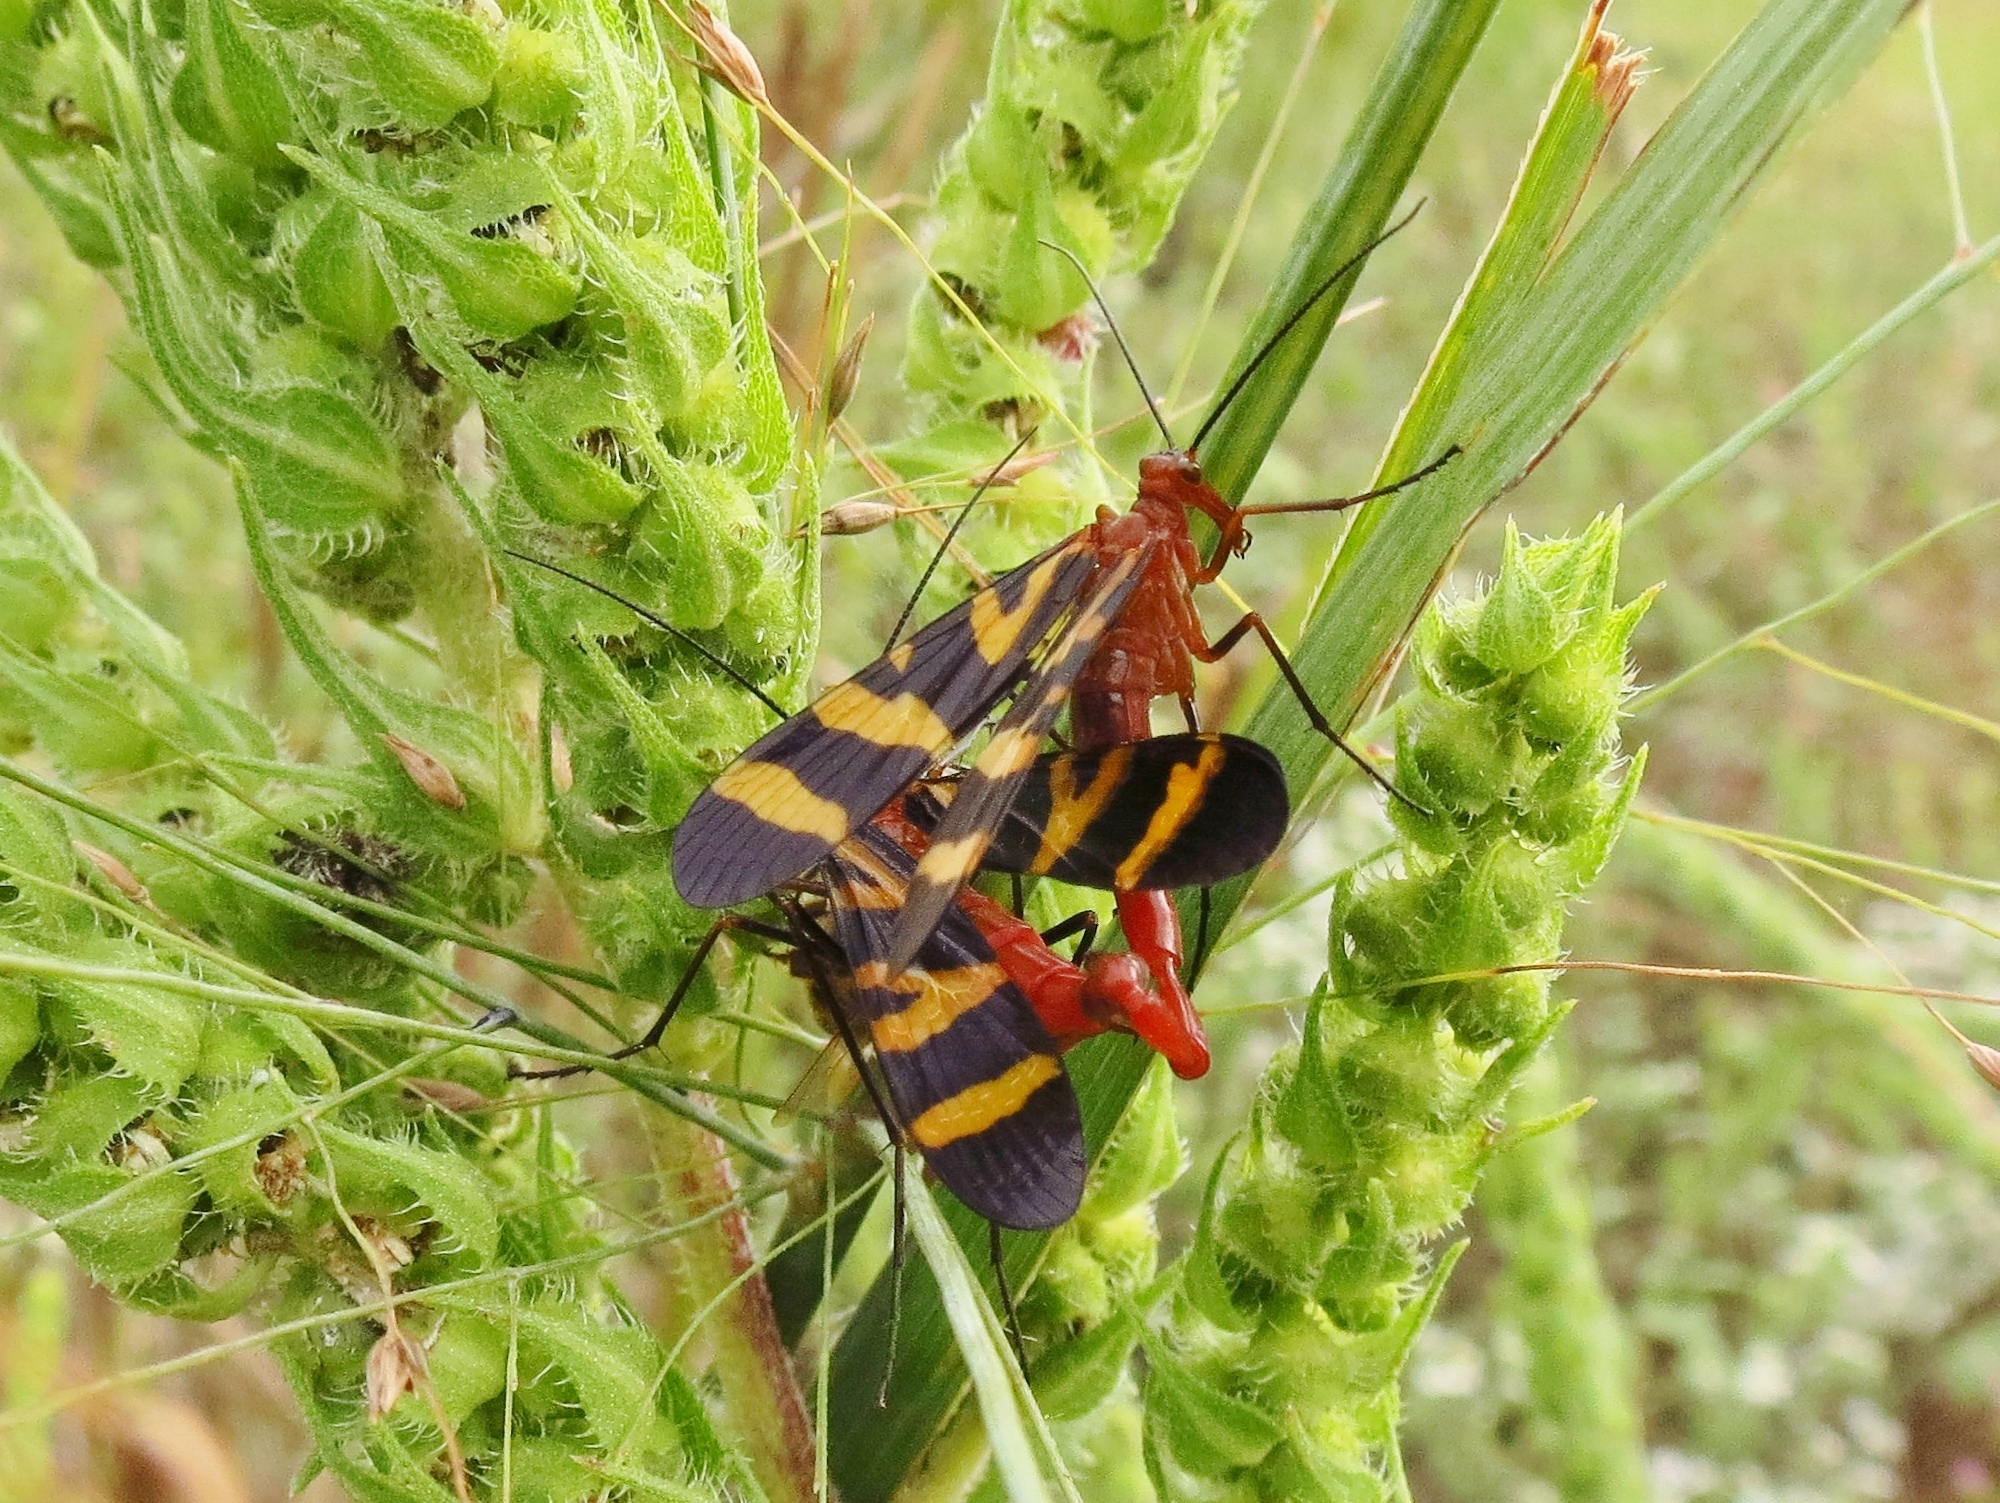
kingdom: Animalia
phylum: Arthropoda
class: Insecta
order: Mecoptera
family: Panorpidae
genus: Panorpa
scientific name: Panorpa nuptialis
